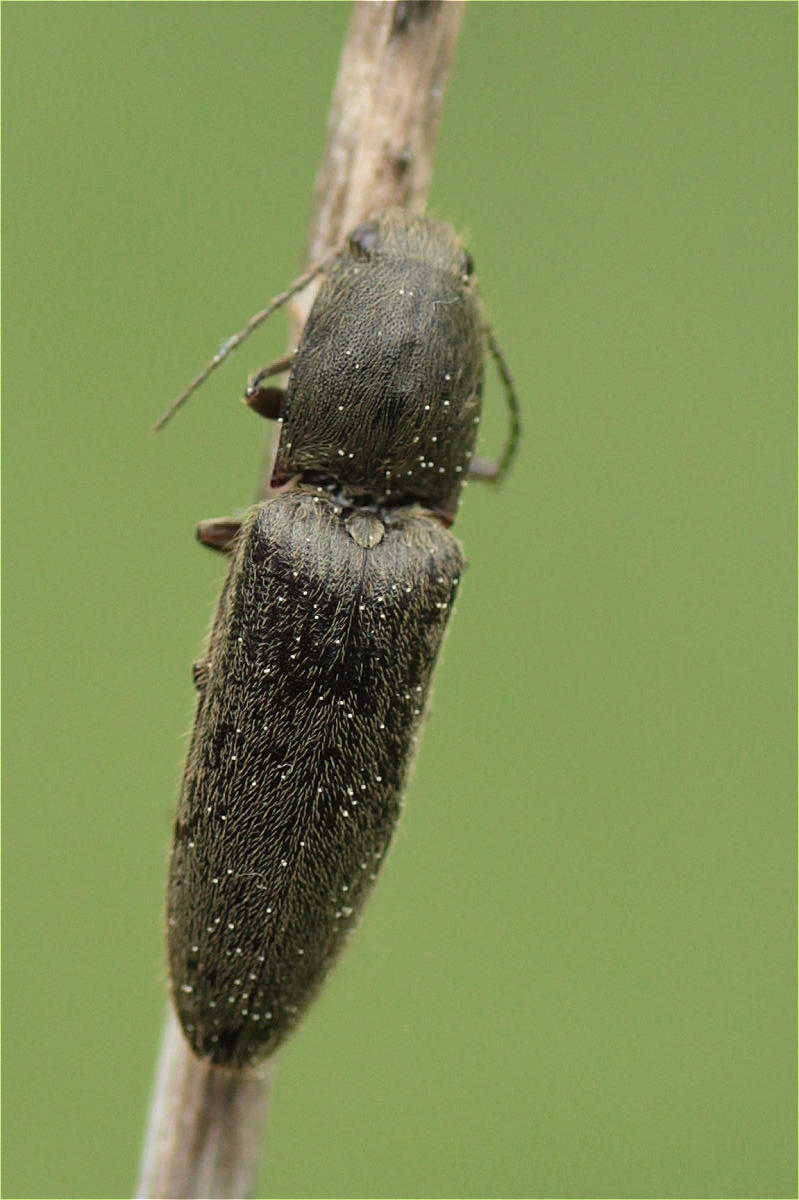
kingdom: Animalia
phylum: Arthropoda
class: Insecta
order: Coleoptera
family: Elateridae
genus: Athous
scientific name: Athous haemorrhoidalis
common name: Red-brown click beetle
